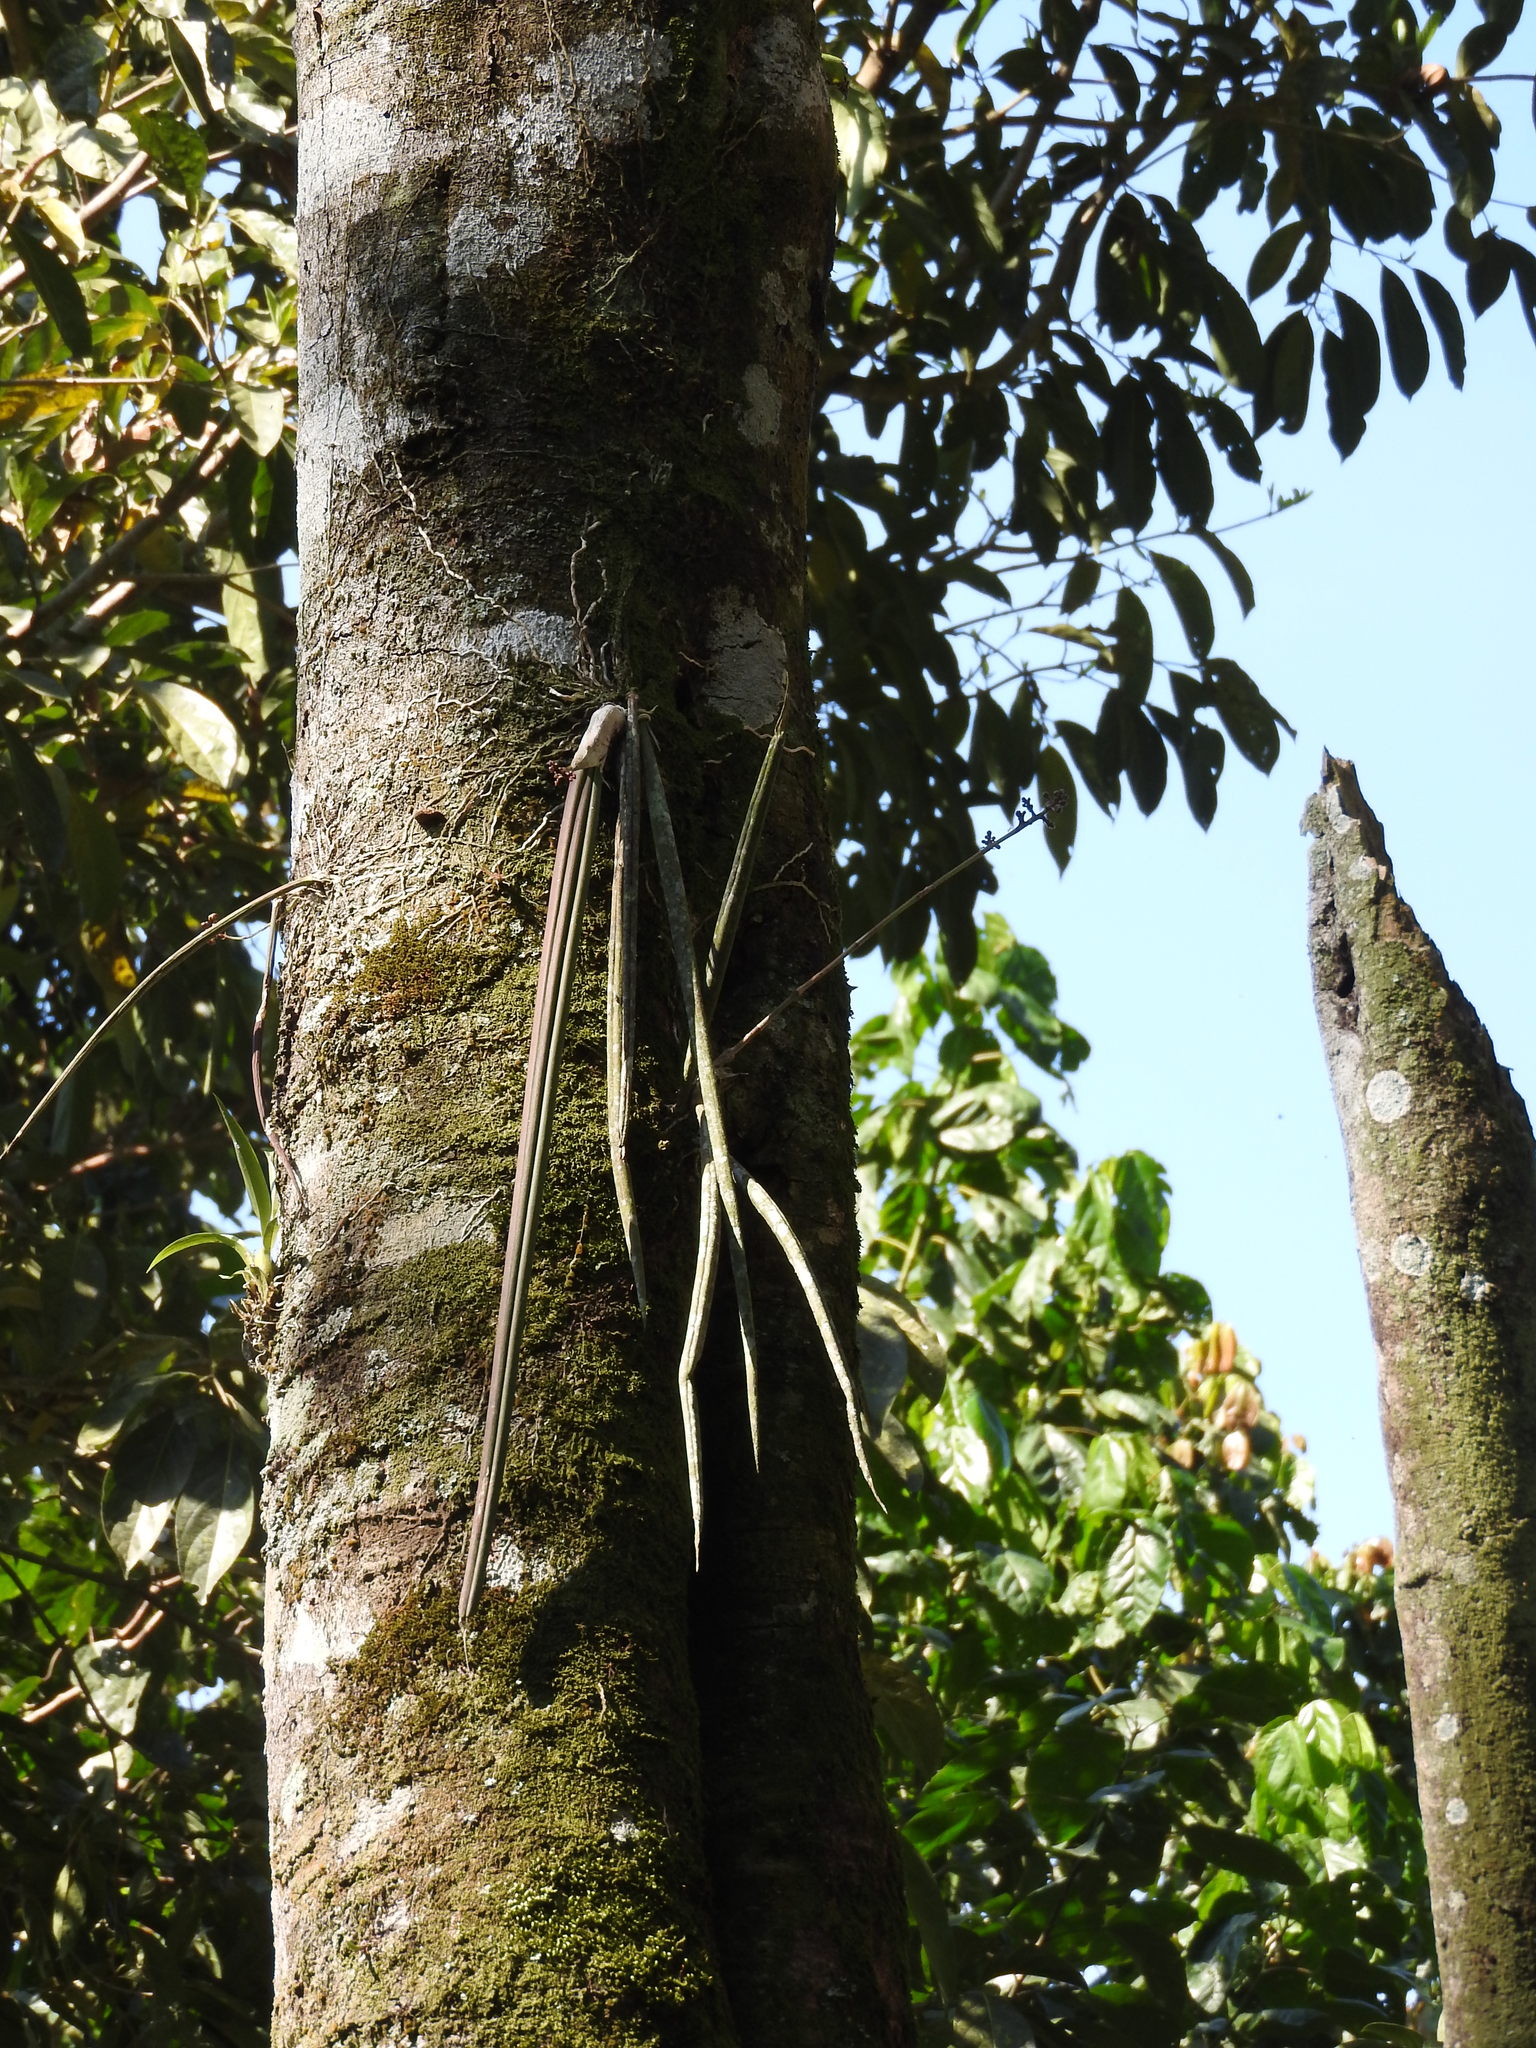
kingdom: Plantae
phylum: Tracheophyta
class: Liliopsida
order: Asparagales
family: Orchidaceae
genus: Trichocentrum
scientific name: Trichocentrum cebolleta
